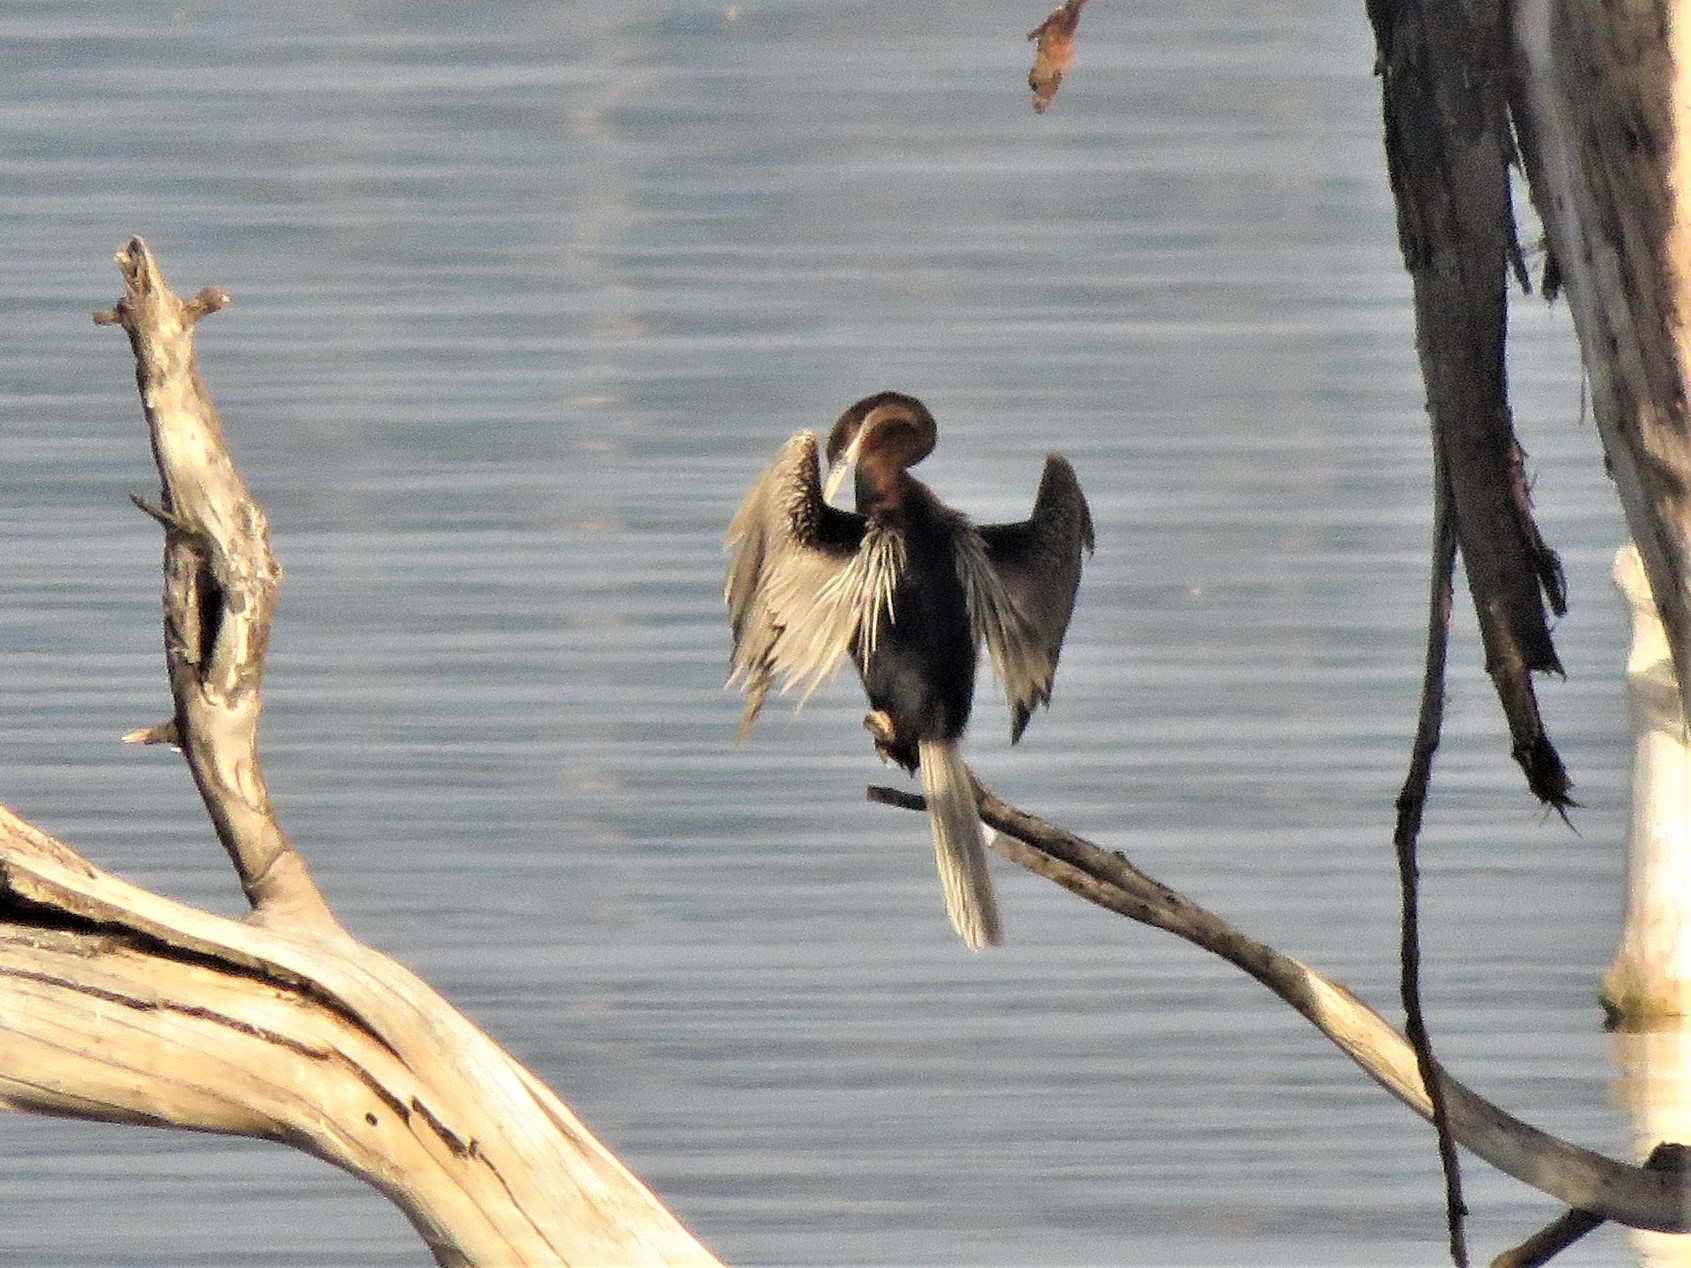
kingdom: Animalia
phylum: Chordata
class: Aves
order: Suliformes
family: Anhingidae
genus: Anhinga
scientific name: Anhinga rufa
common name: African darter
